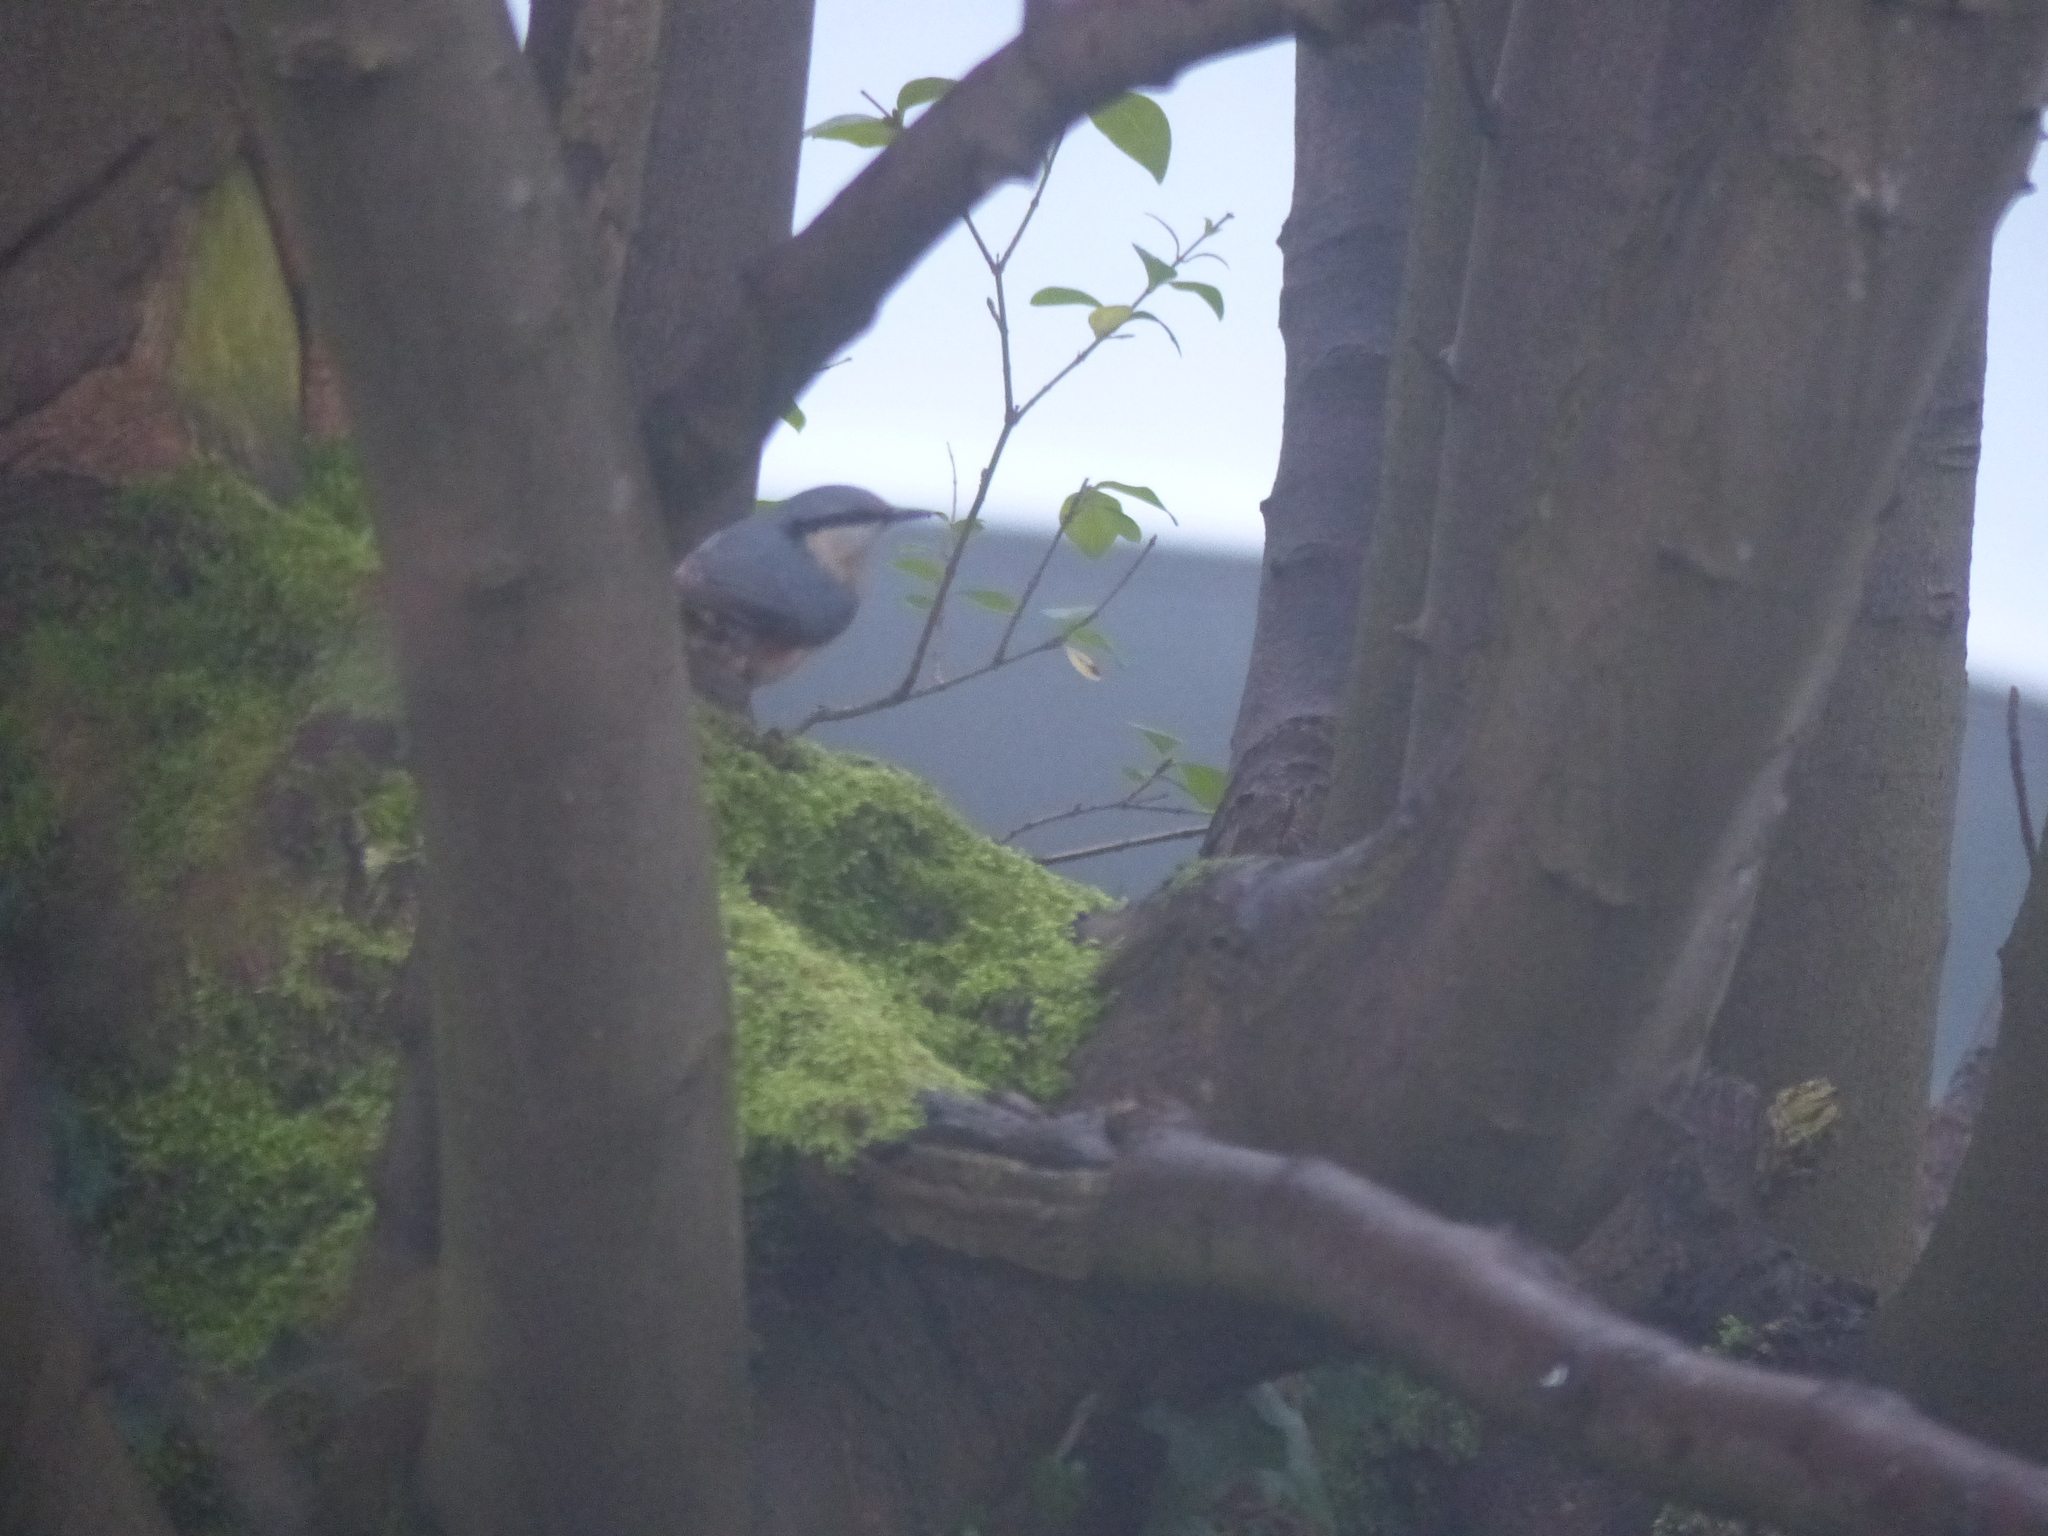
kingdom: Animalia
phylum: Chordata
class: Aves
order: Passeriformes
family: Sittidae
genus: Sitta
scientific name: Sitta europaea
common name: Eurasian nuthatch
